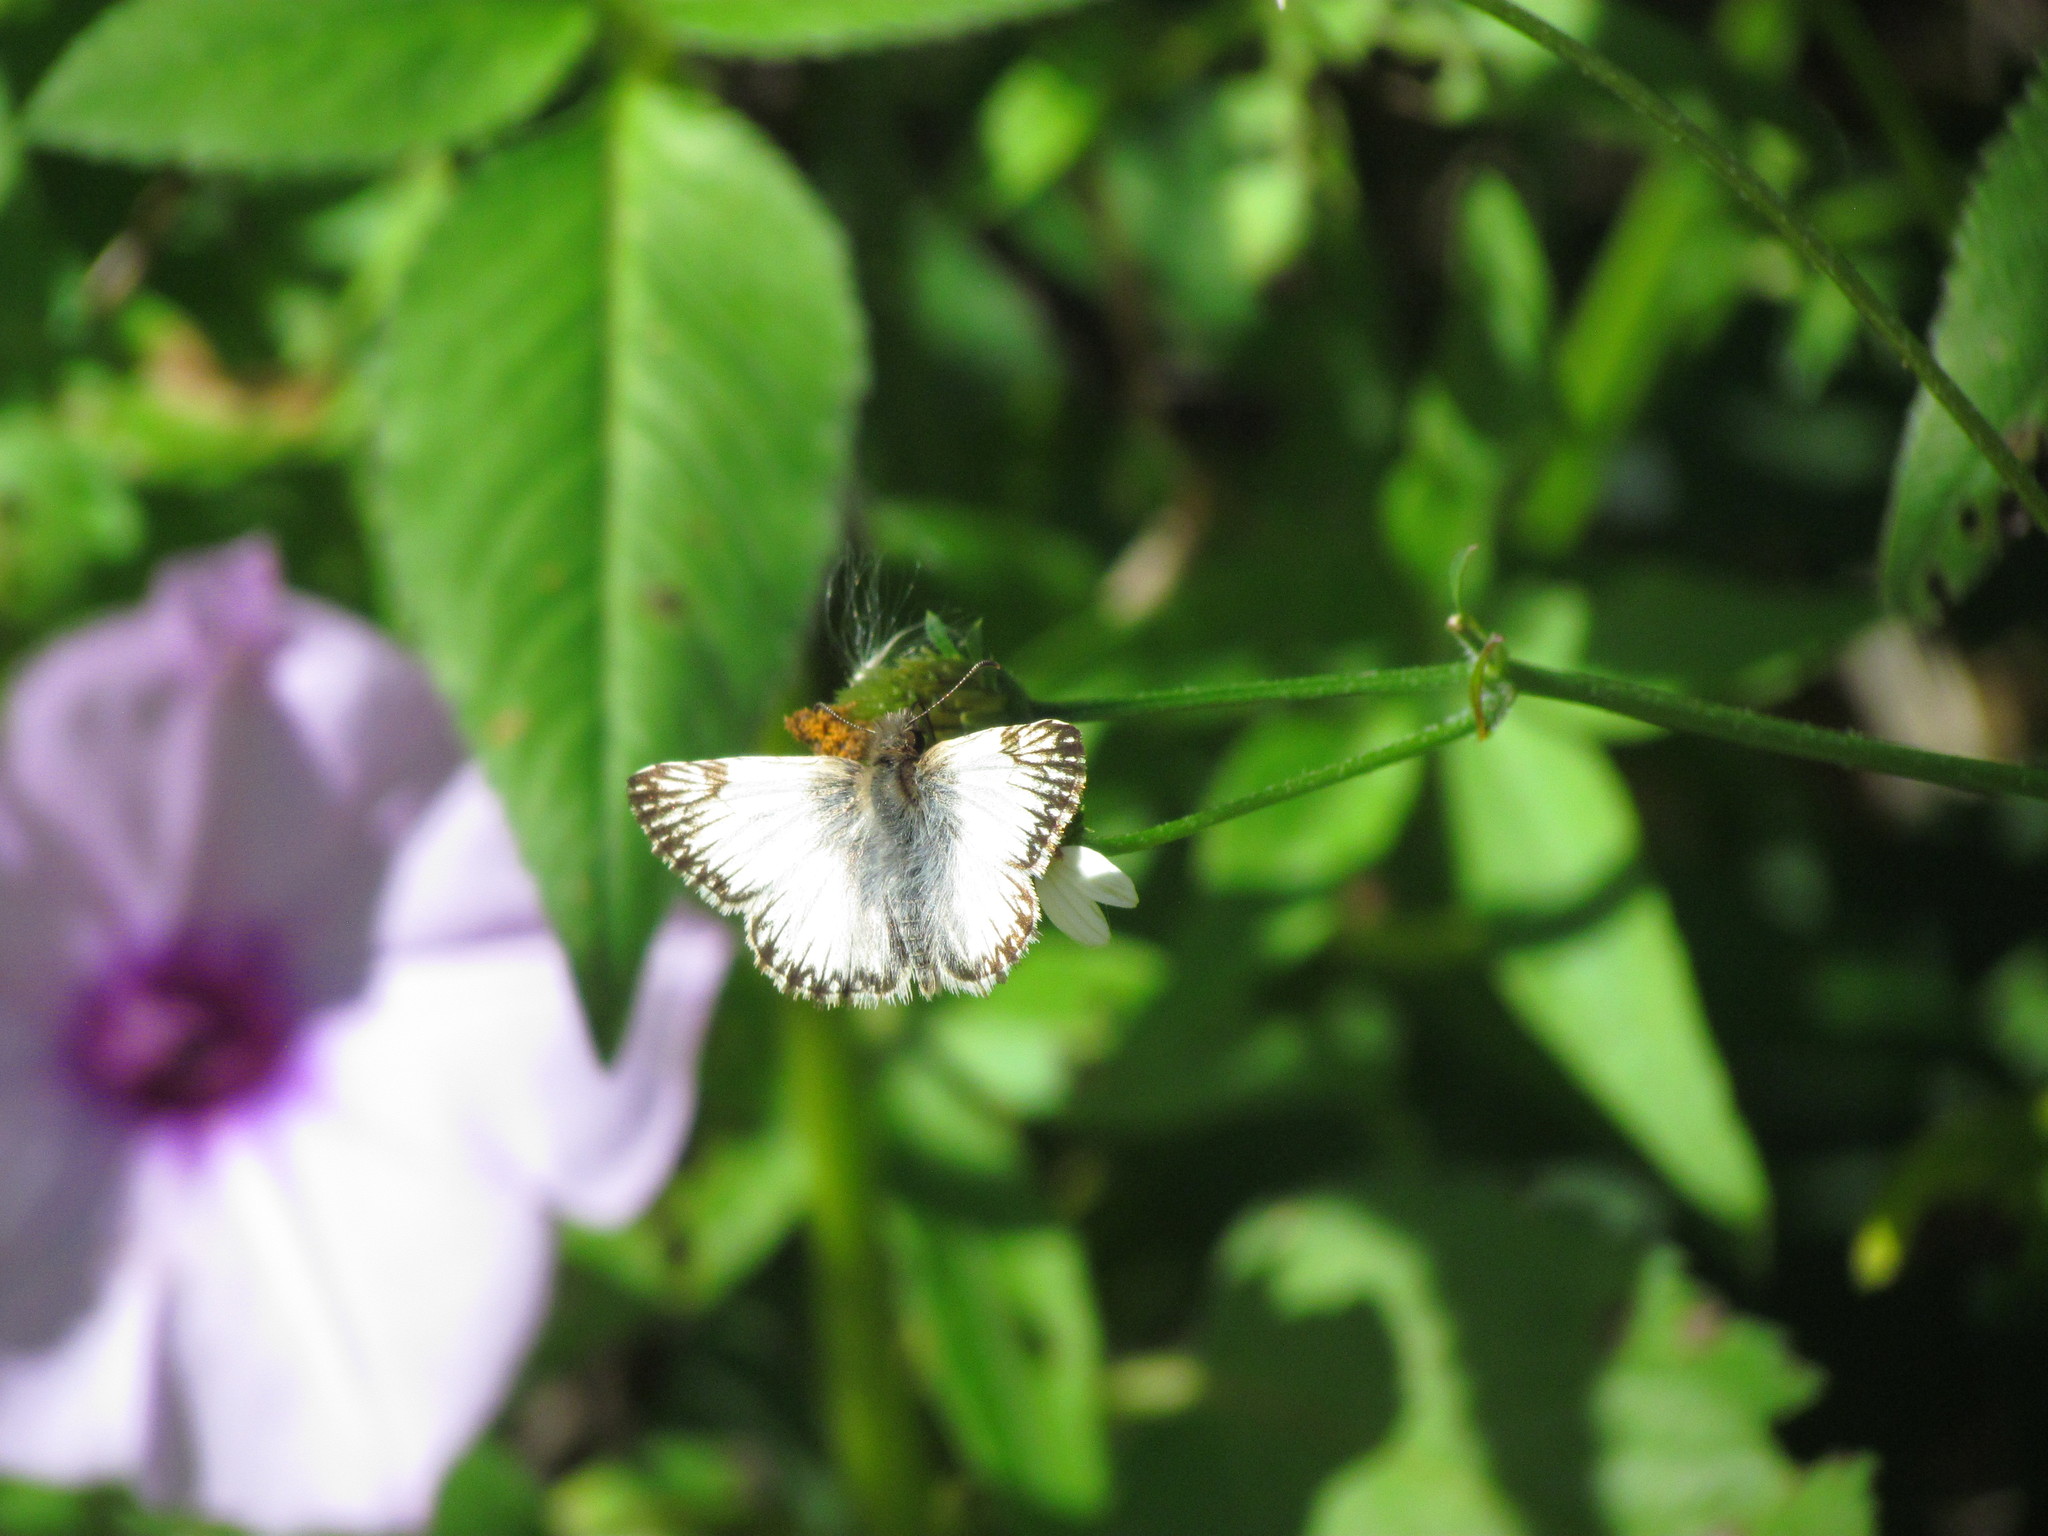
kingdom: Animalia
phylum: Arthropoda
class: Insecta
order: Lepidoptera
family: Hesperiidae
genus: Heliopetes
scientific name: Heliopetes omrina
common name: Stained white-skipper
